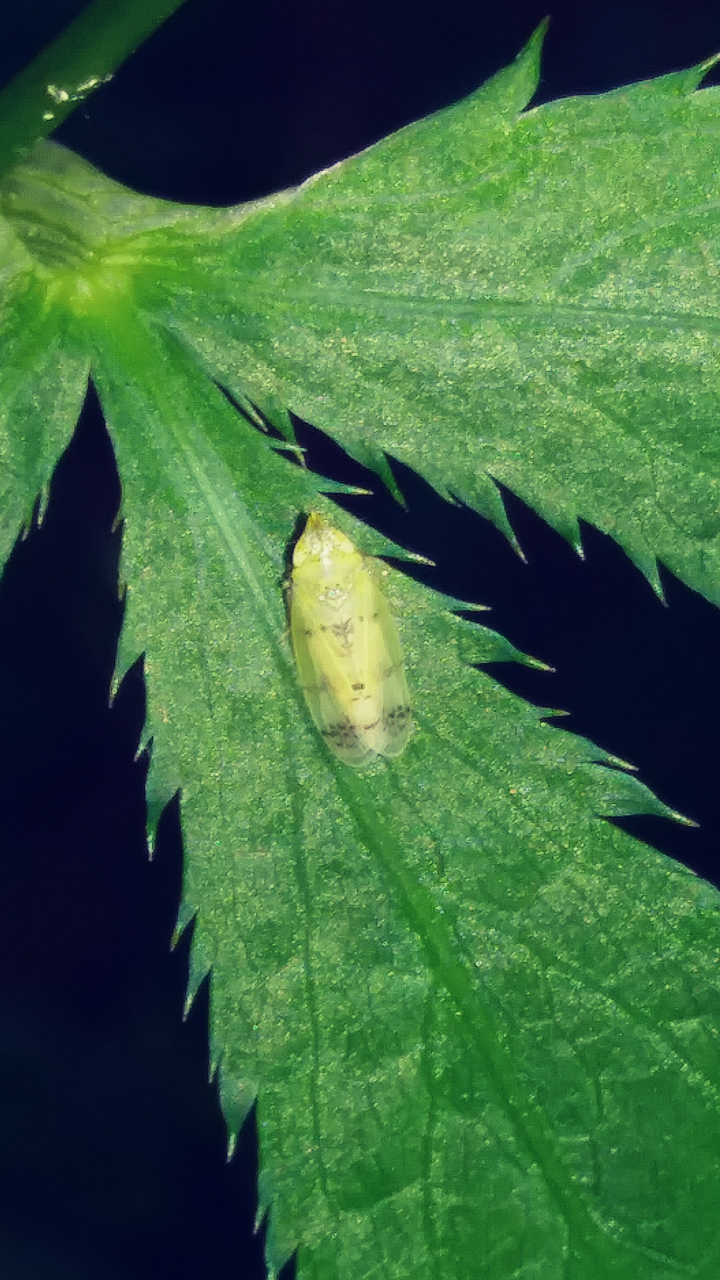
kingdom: Animalia
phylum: Arthropoda
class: Insecta
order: Hemiptera
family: Cicadellidae
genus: Japananus
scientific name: Japananus hyalinus
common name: The japanese maple leafhopper
